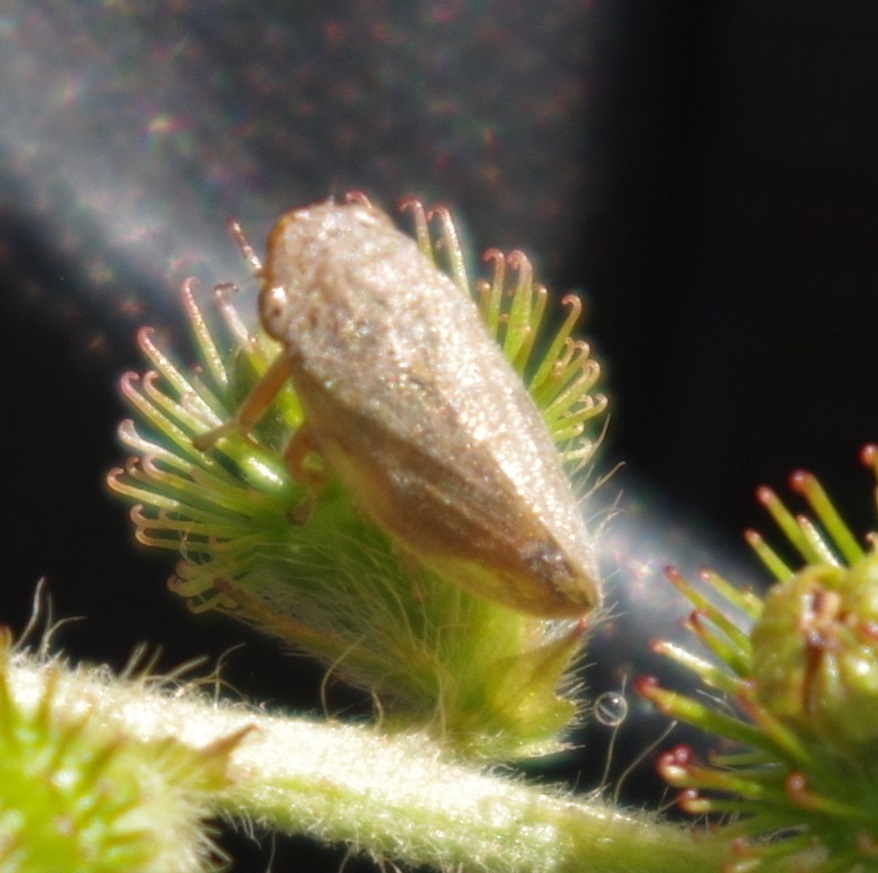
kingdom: Animalia
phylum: Arthropoda
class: Insecta
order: Hemiptera
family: Aphrophoridae
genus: Philaenus
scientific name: Philaenus spumarius
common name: Meadow spittlebug
